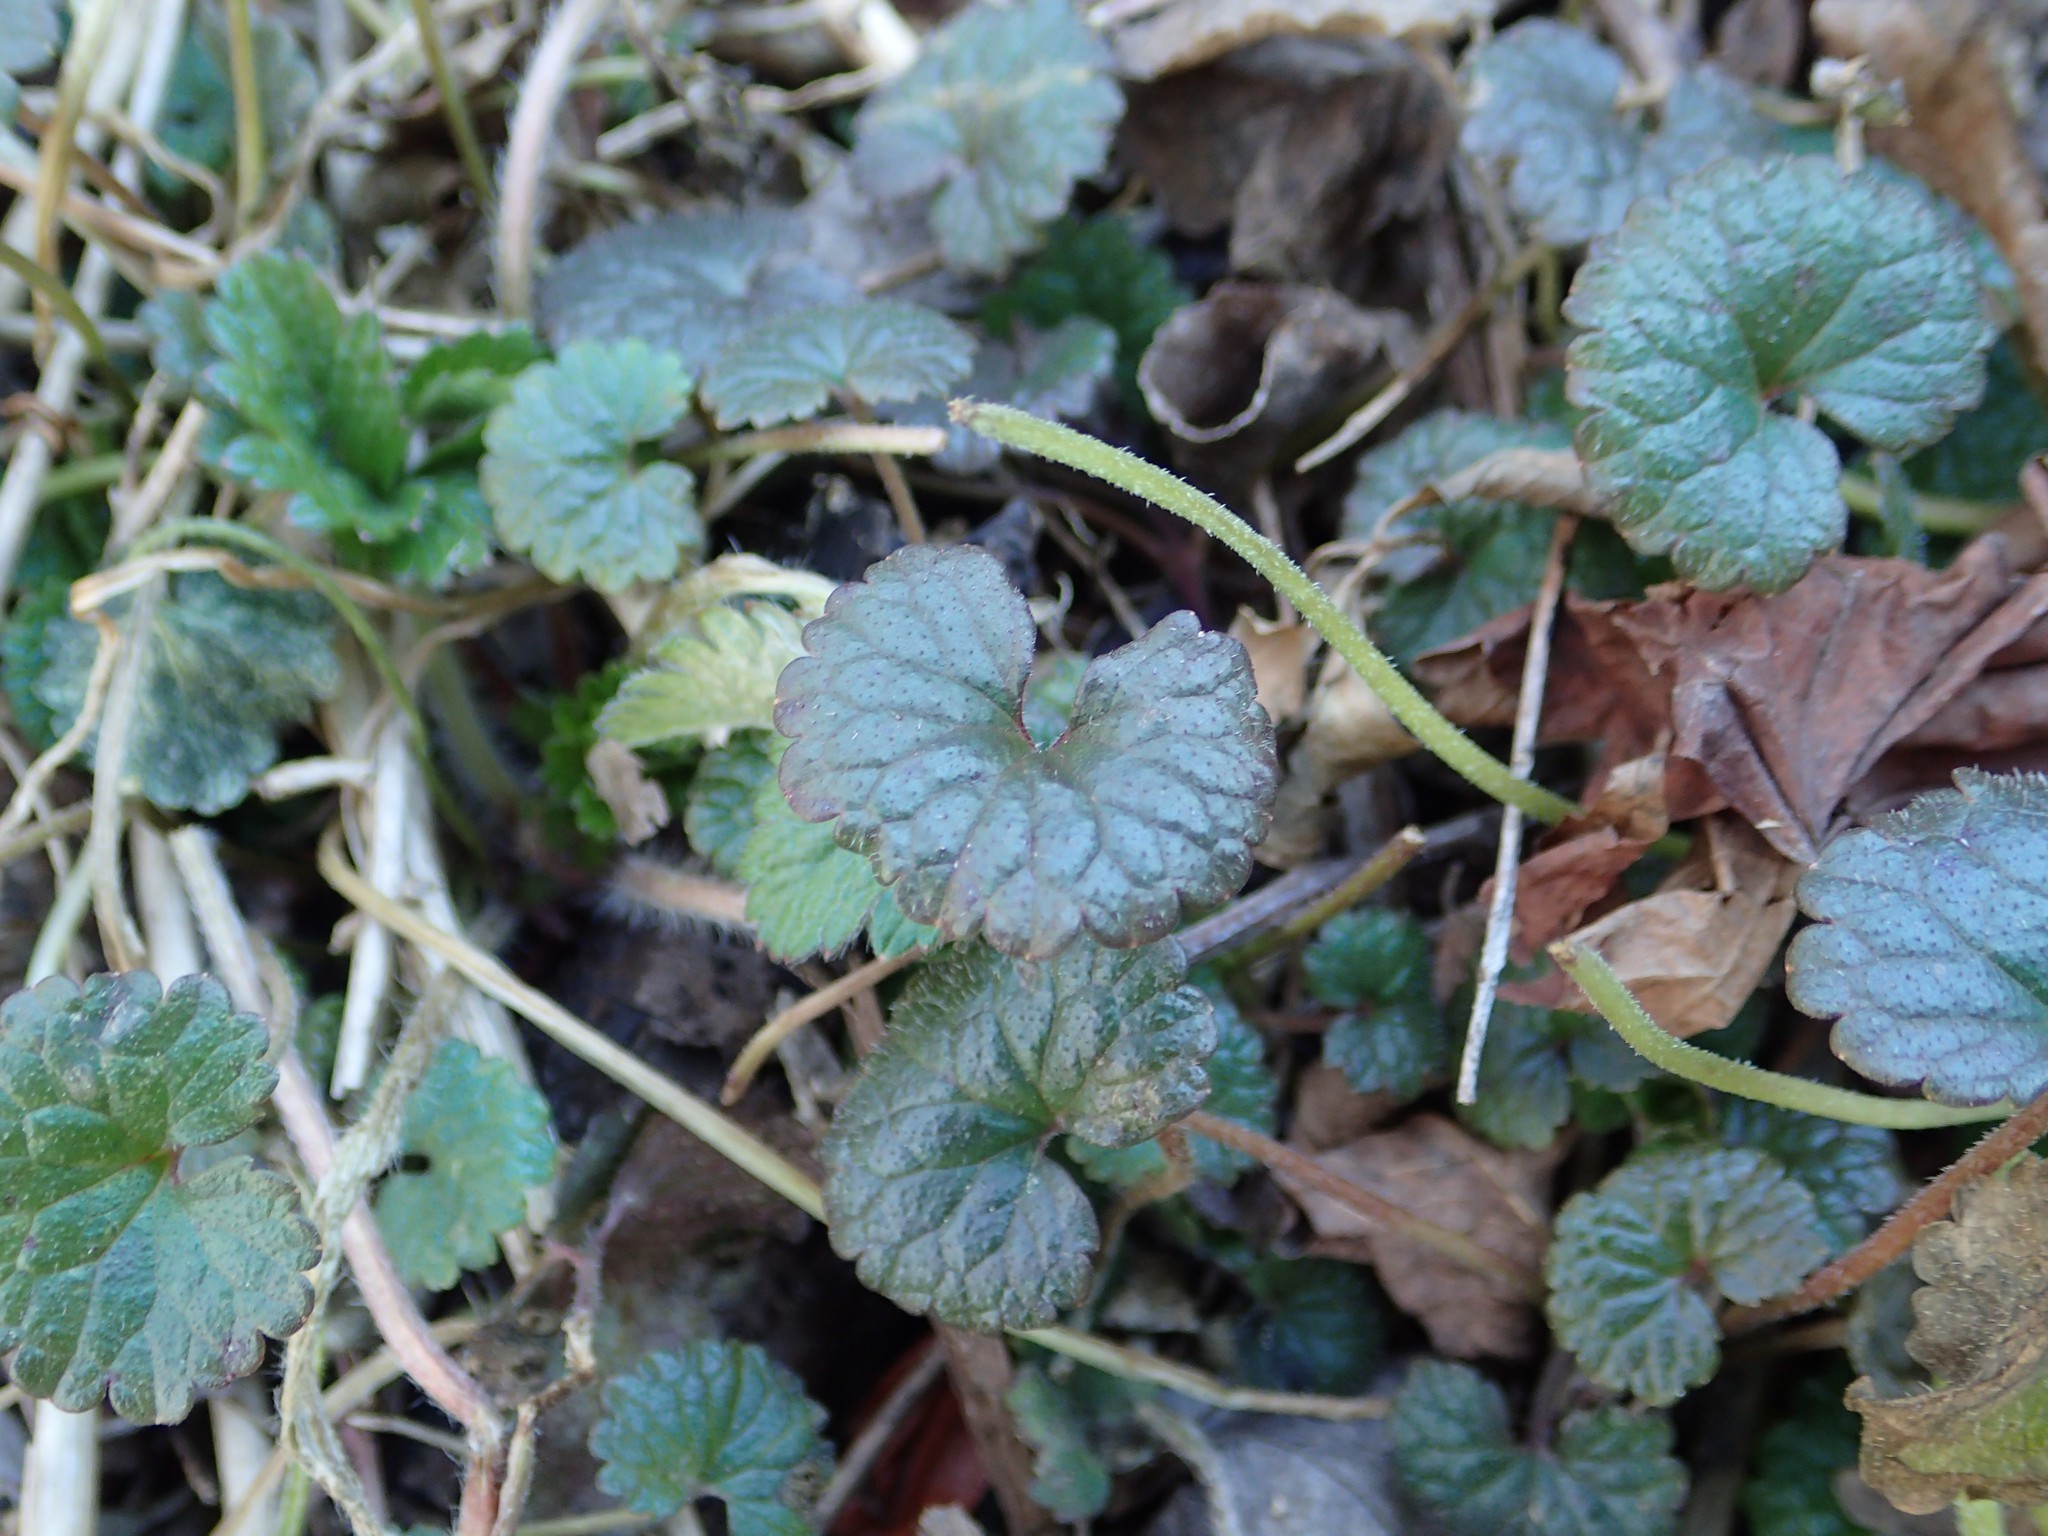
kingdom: Plantae
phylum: Tracheophyta
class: Magnoliopsida
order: Lamiales
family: Lamiaceae
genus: Glechoma
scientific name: Glechoma hederacea
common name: Ground ivy
